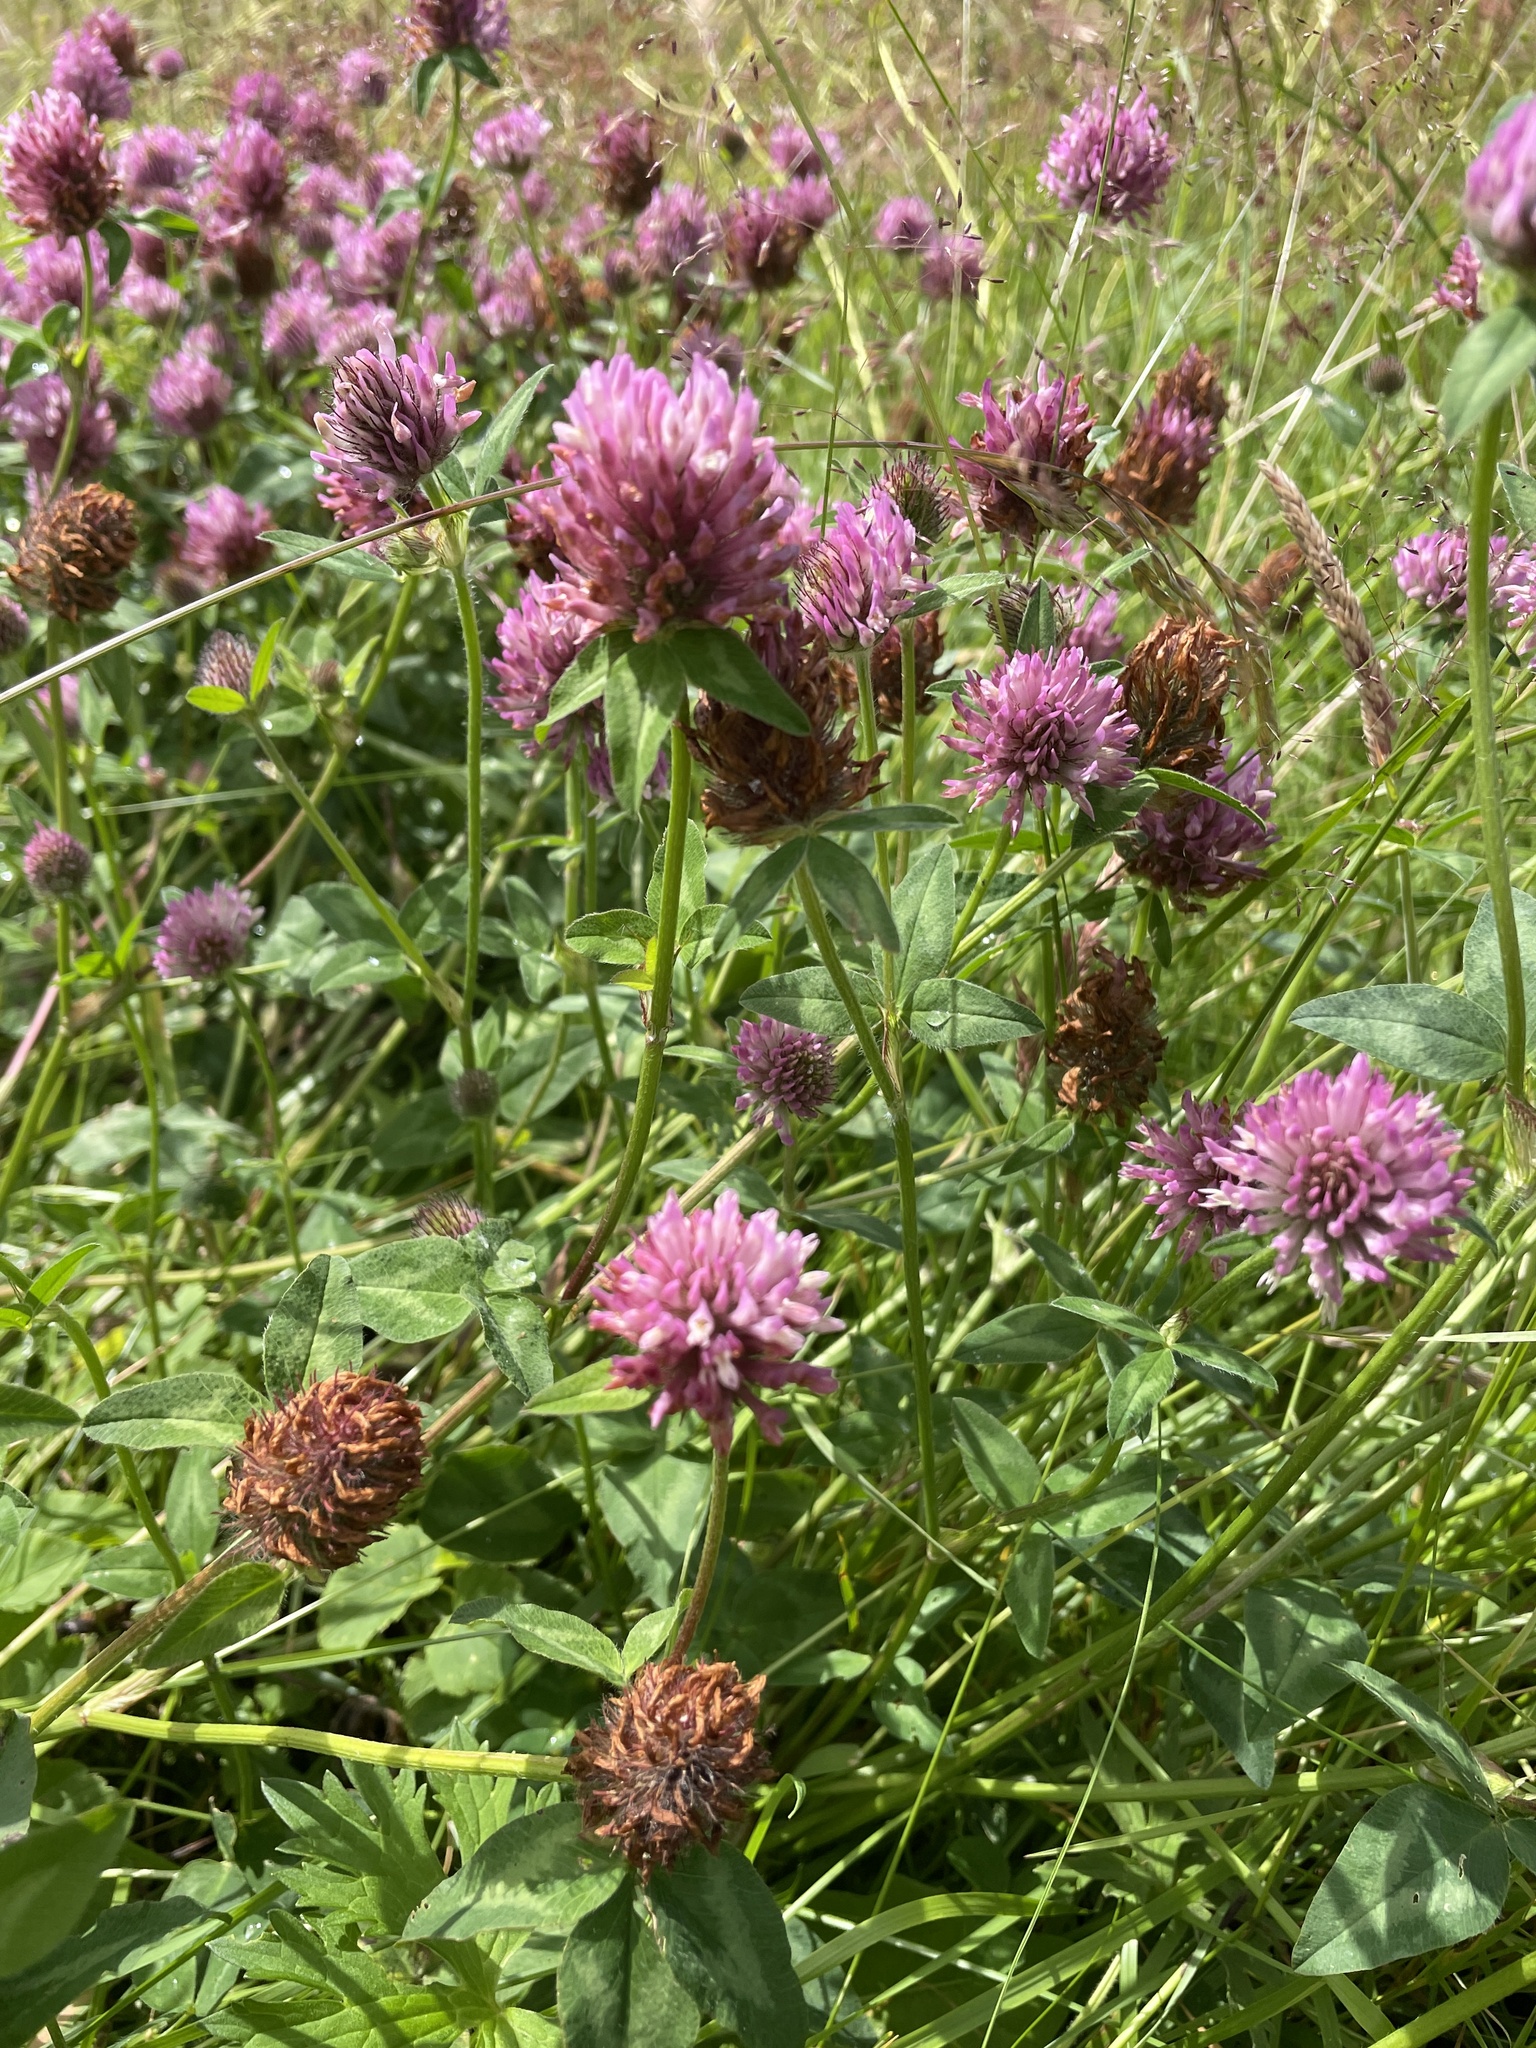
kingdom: Plantae
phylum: Tracheophyta
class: Magnoliopsida
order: Fabales
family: Fabaceae
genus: Trifolium
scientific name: Trifolium pratense
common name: Red clover
